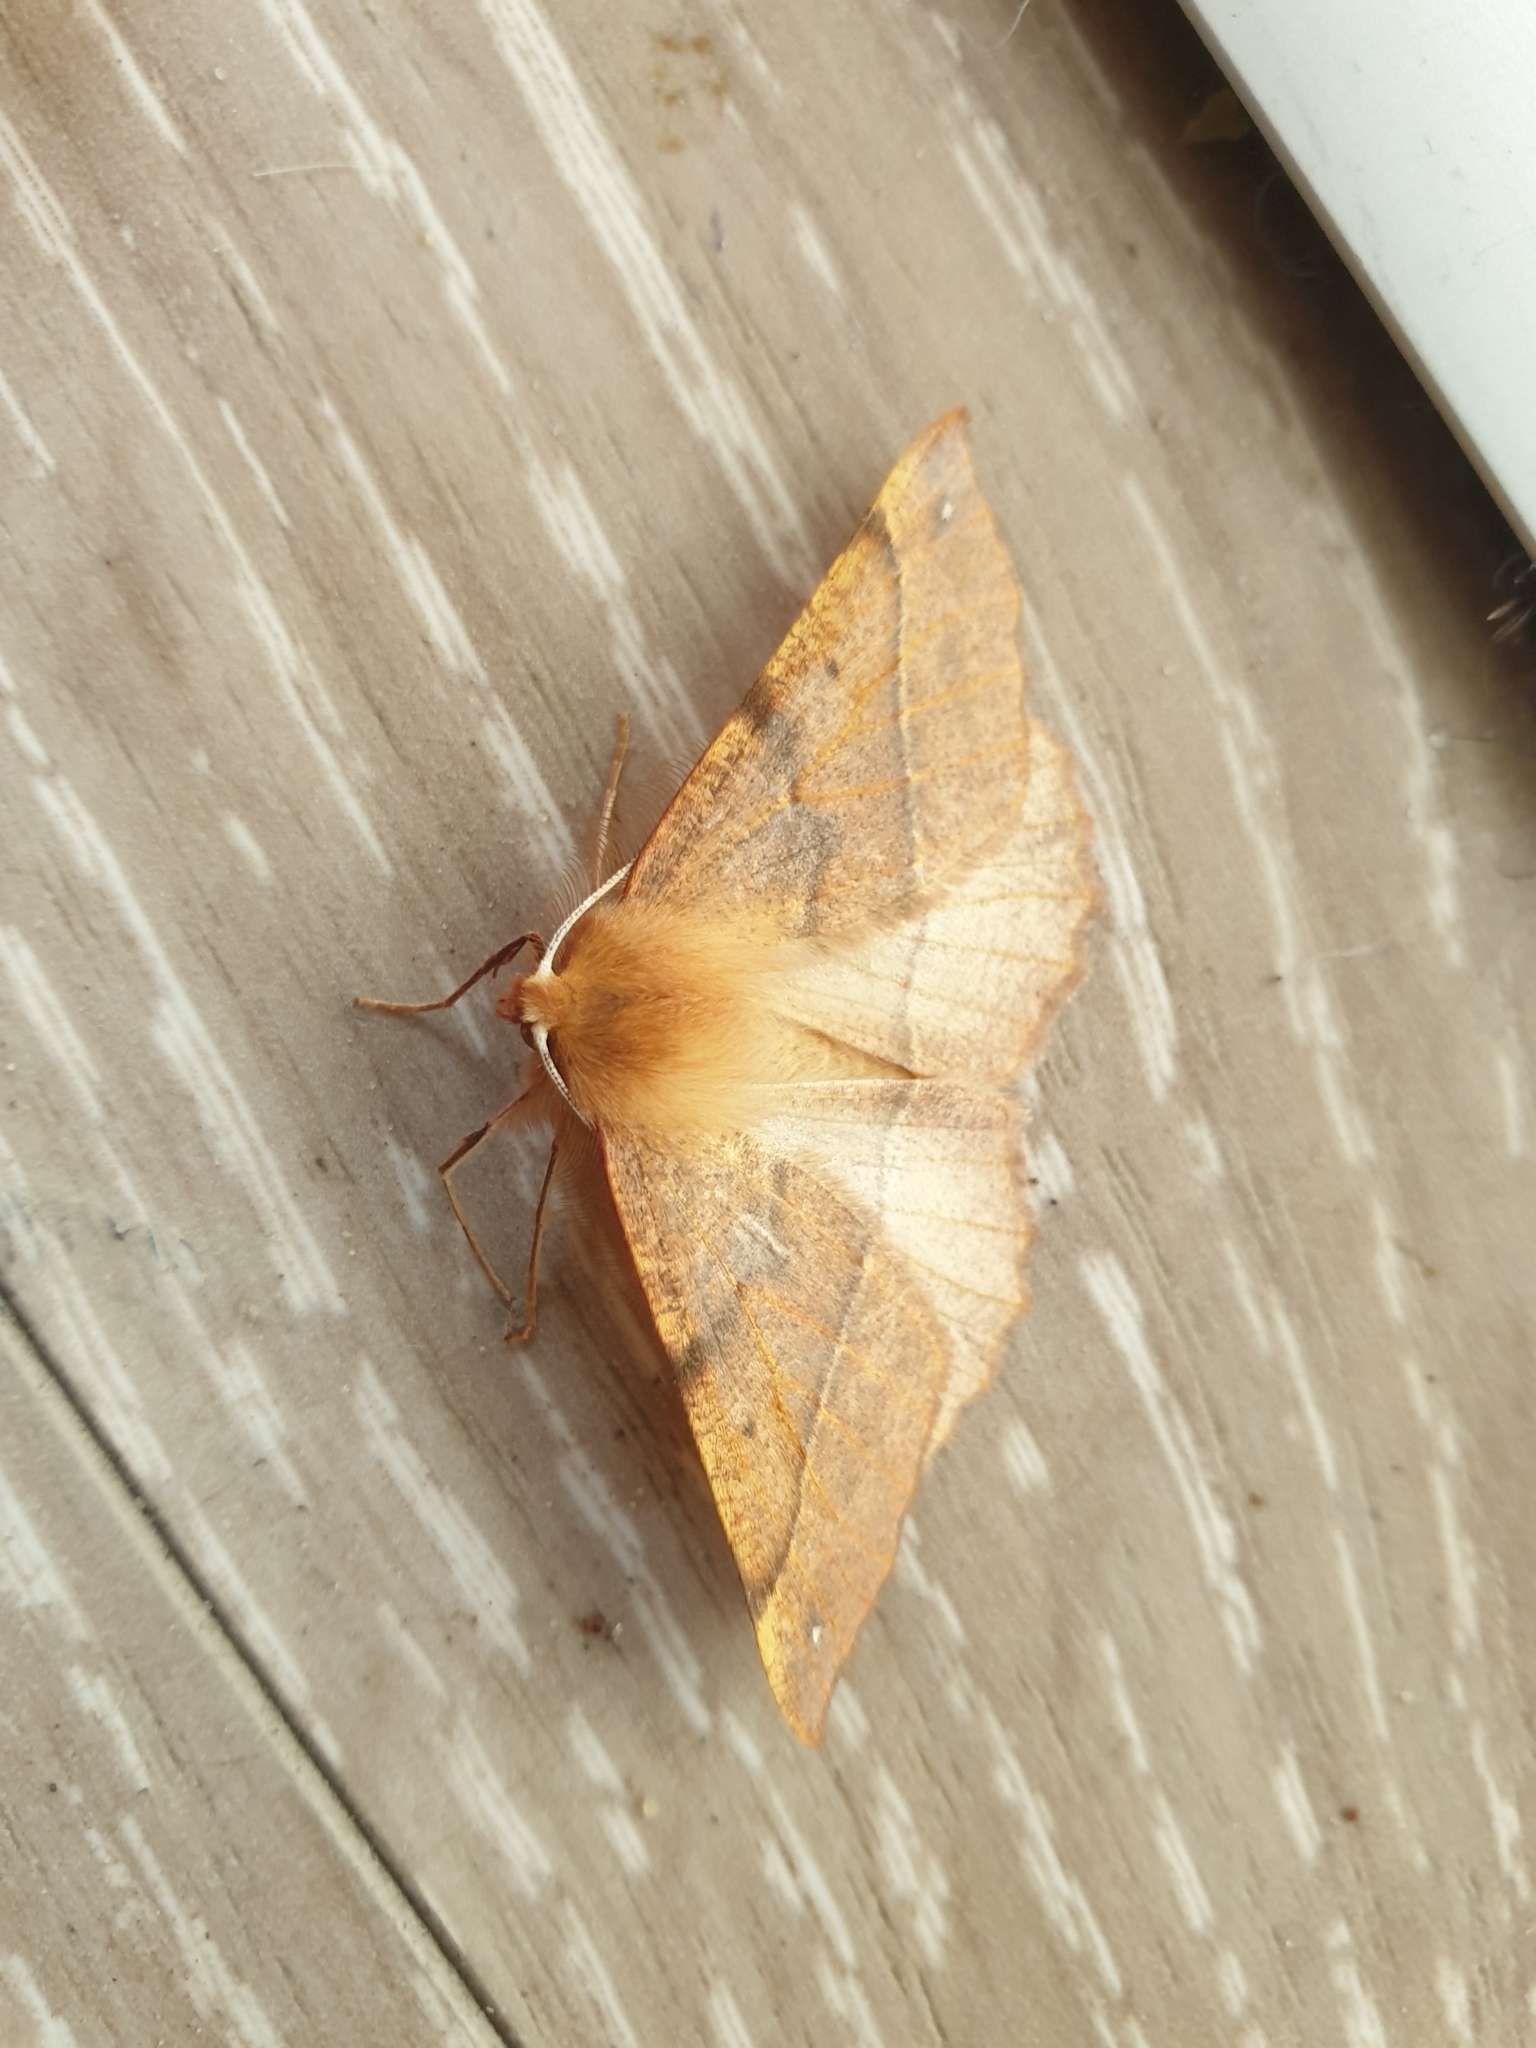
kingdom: Animalia
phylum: Arthropoda
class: Insecta
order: Lepidoptera
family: Geometridae
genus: Colotois
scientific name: Colotois pennaria
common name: Feathered thorn
